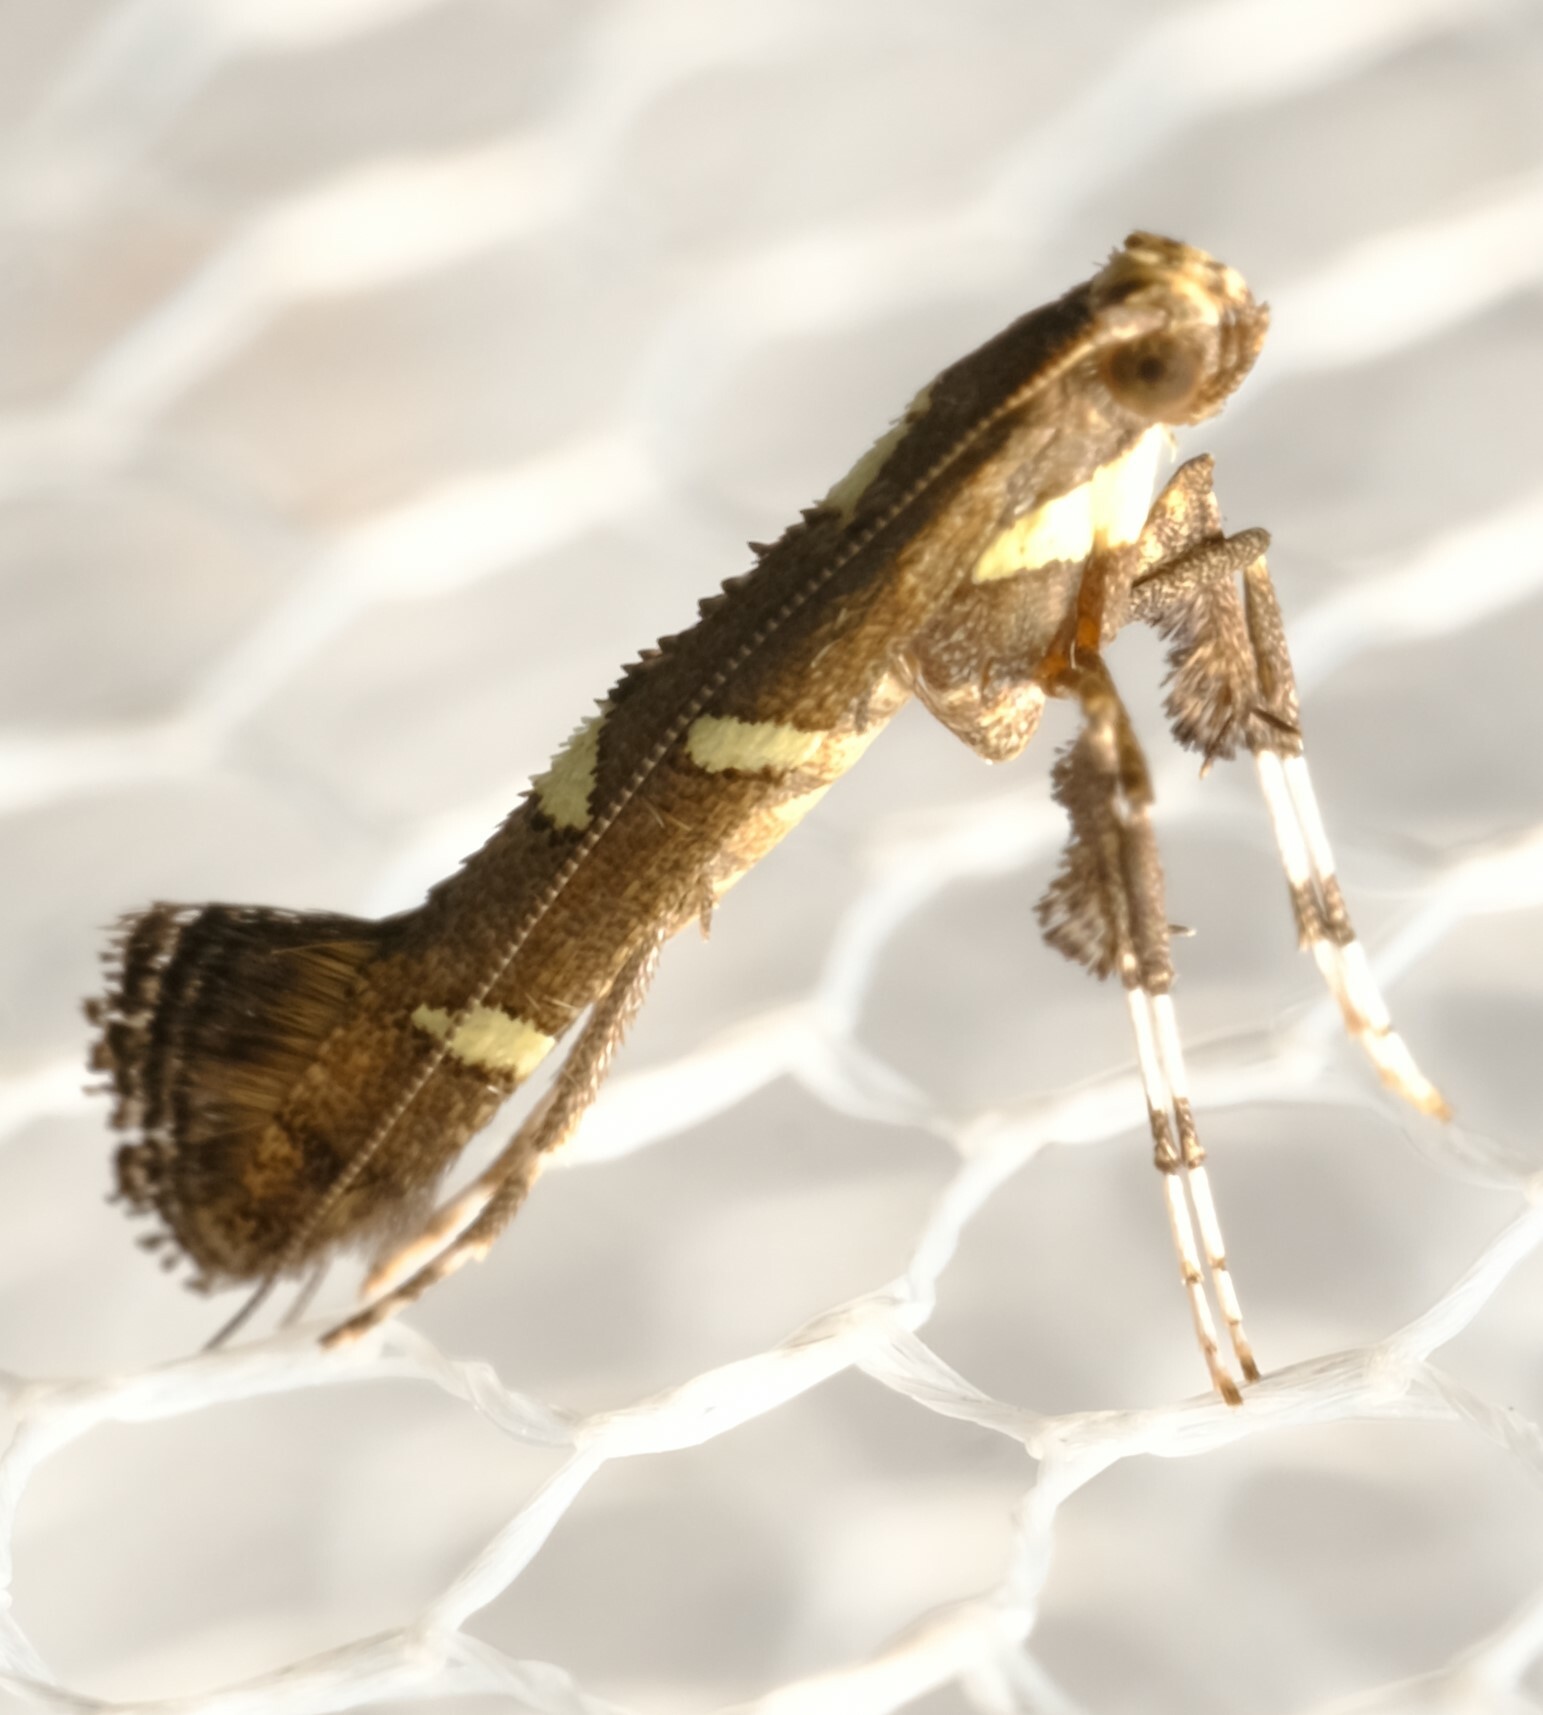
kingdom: Animalia
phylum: Arthropoda
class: Insecta
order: Lepidoptera
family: Gracillariidae
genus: Caloptilia
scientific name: Caloptilia adelosema
